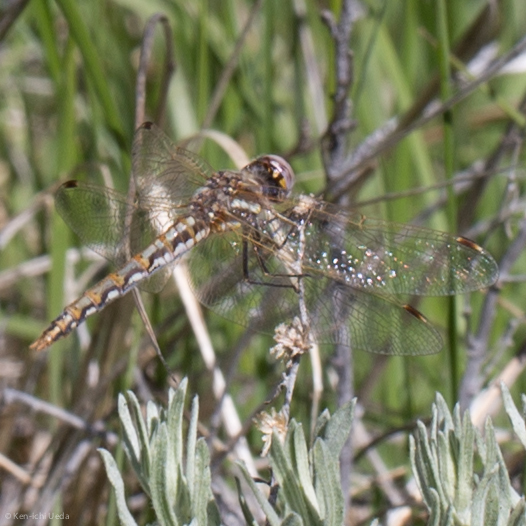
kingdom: Animalia
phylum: Arthropoda
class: Insecta
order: Odonata
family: Libellulidae
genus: Sympetrum
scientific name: Sympetrum corruptum
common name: Variegated meadowhawk
